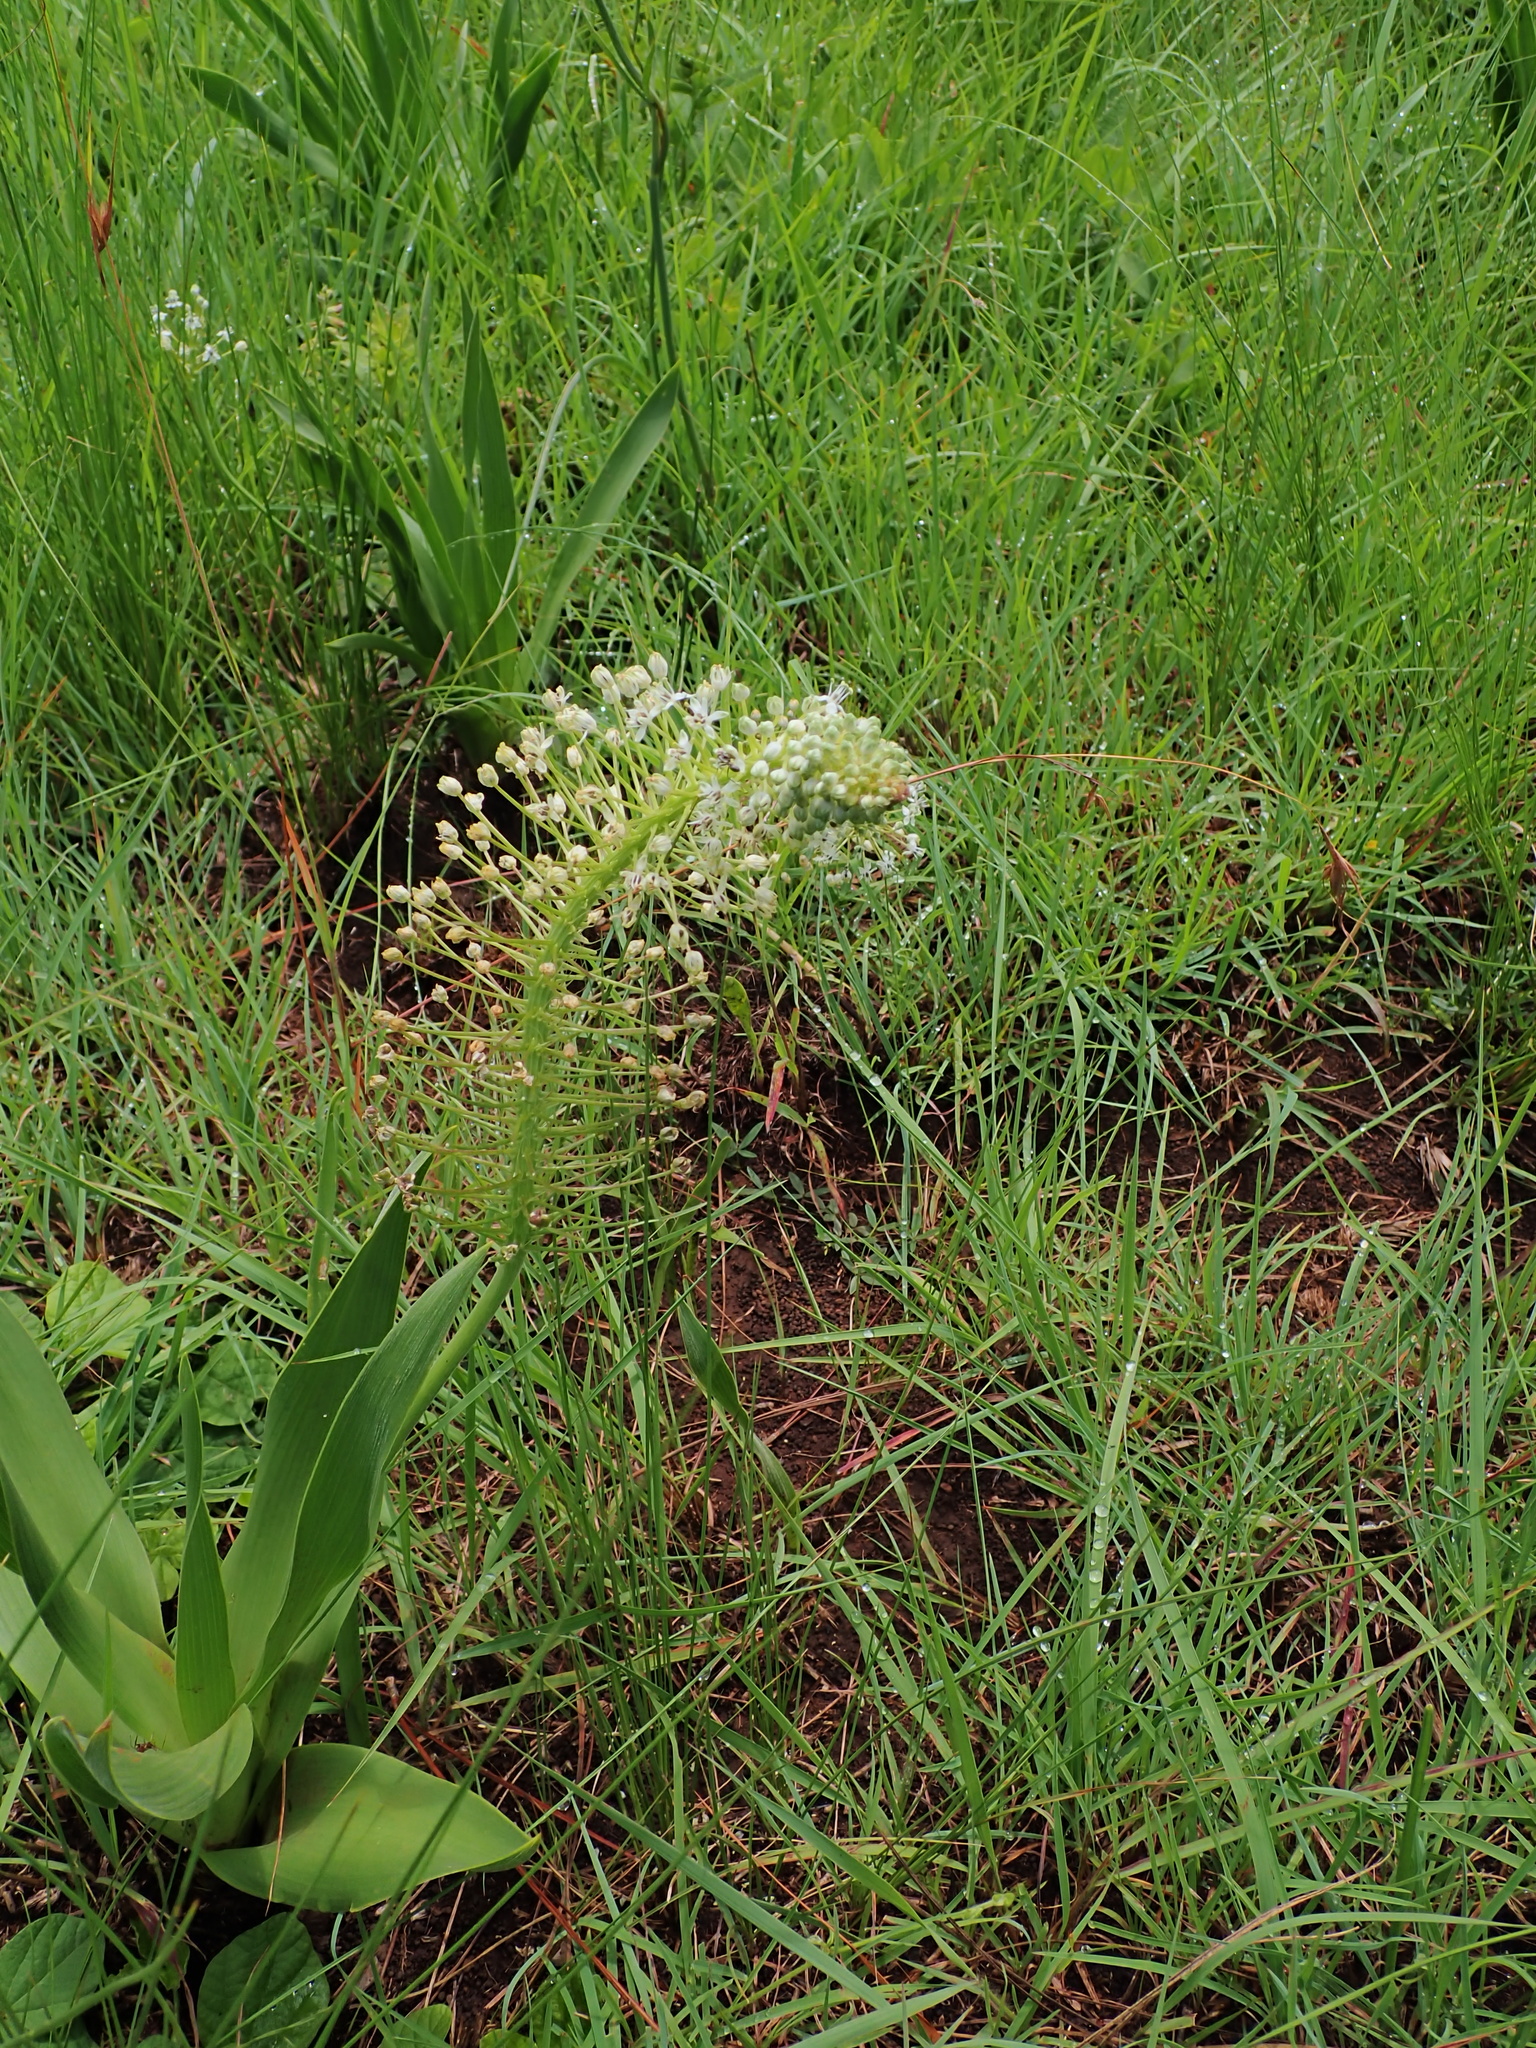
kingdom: Plantae
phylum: Tracheophyta
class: Liliopsida
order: Asparagales
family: Asparagaceae
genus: Schizocarphus
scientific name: Schizocarphus nervosus
